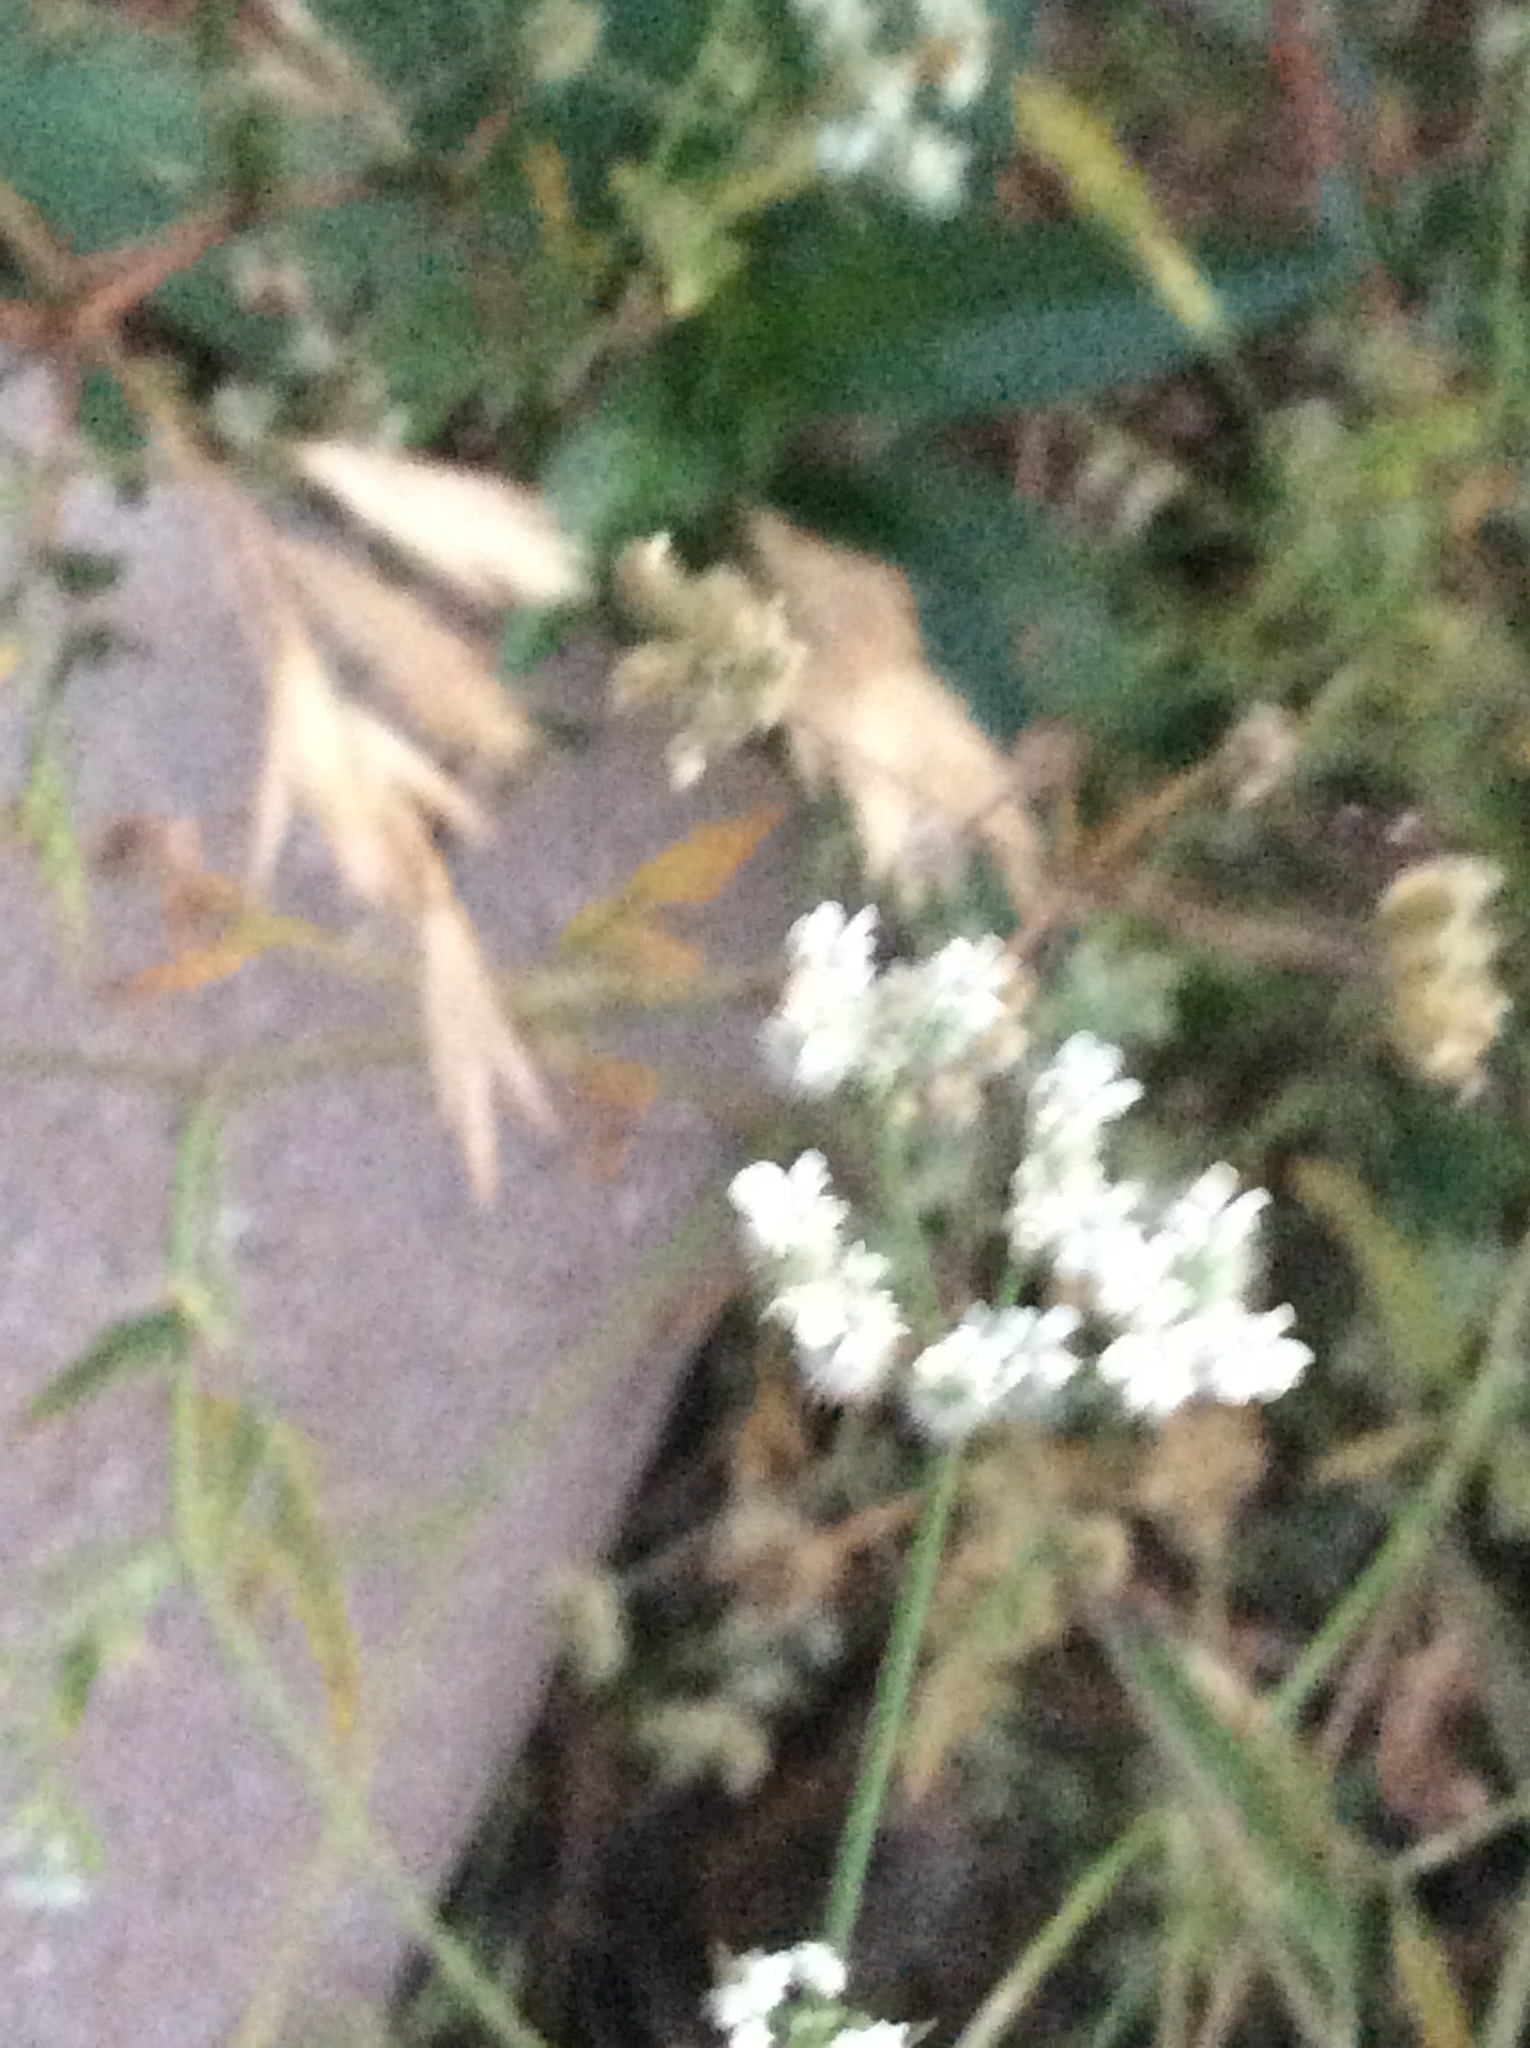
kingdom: Plantae
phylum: Tracheophyta
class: Magnoliopsida
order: Apiales
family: Apiaceae
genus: Torilis
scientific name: Torilis arvensis
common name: Spreading hedge-parsley
